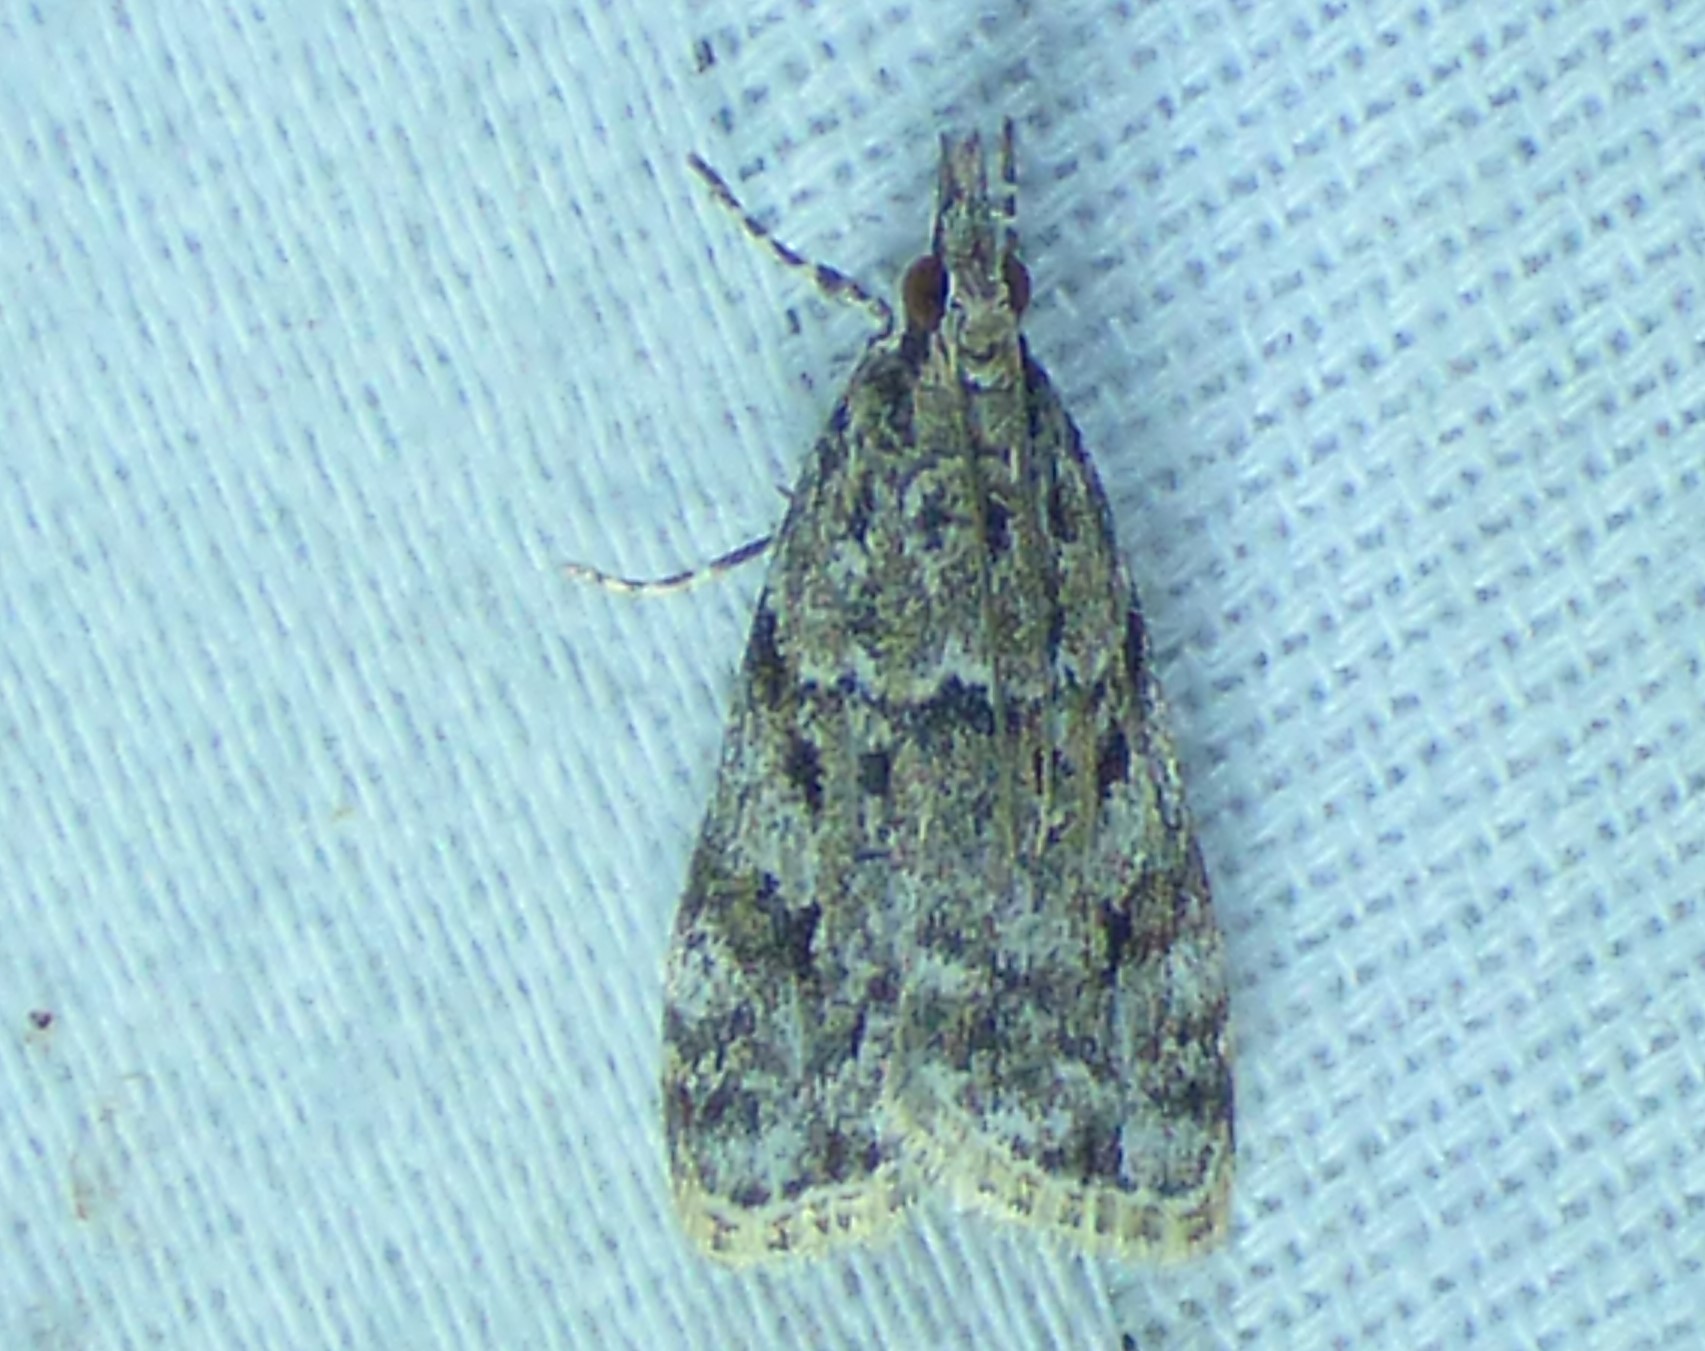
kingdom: Animalia
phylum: Arthropoda
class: Insecta
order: Lepidoptera
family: Crambidae
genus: Eudonia
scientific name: Eudonia heterosalis
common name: Mcdunnough's eudonia
